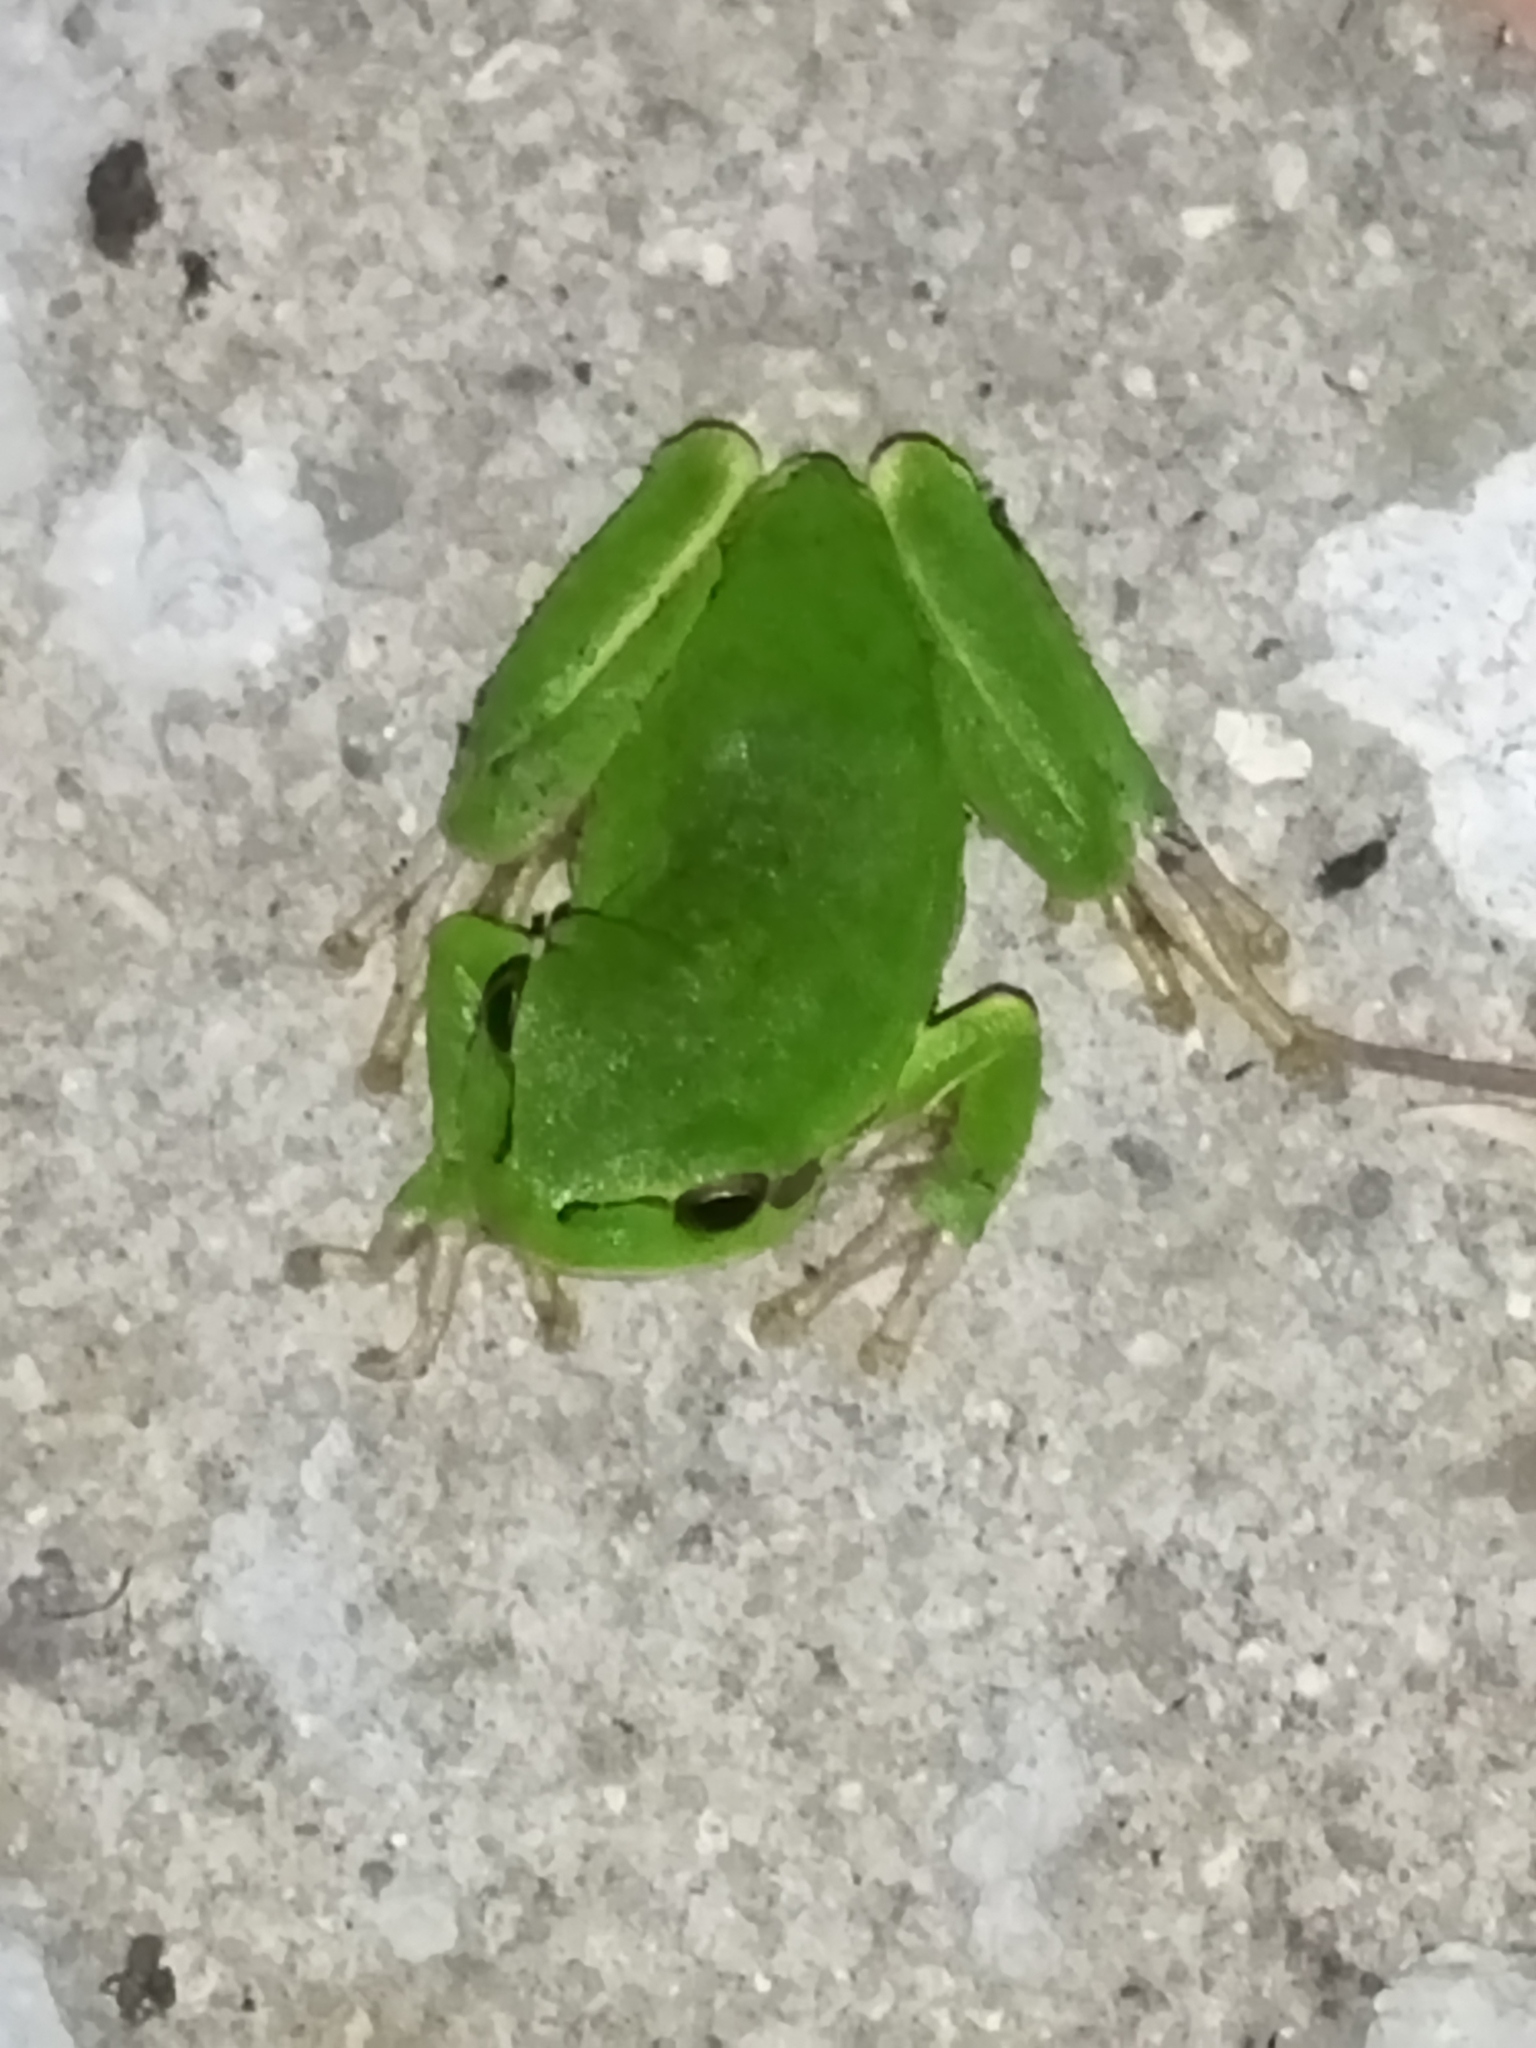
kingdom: Animalia
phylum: Chordata
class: Amphibia
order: Anura
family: Hylidae
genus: Hyla
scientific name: Hyla orientalis
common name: Caucasian treefrog
